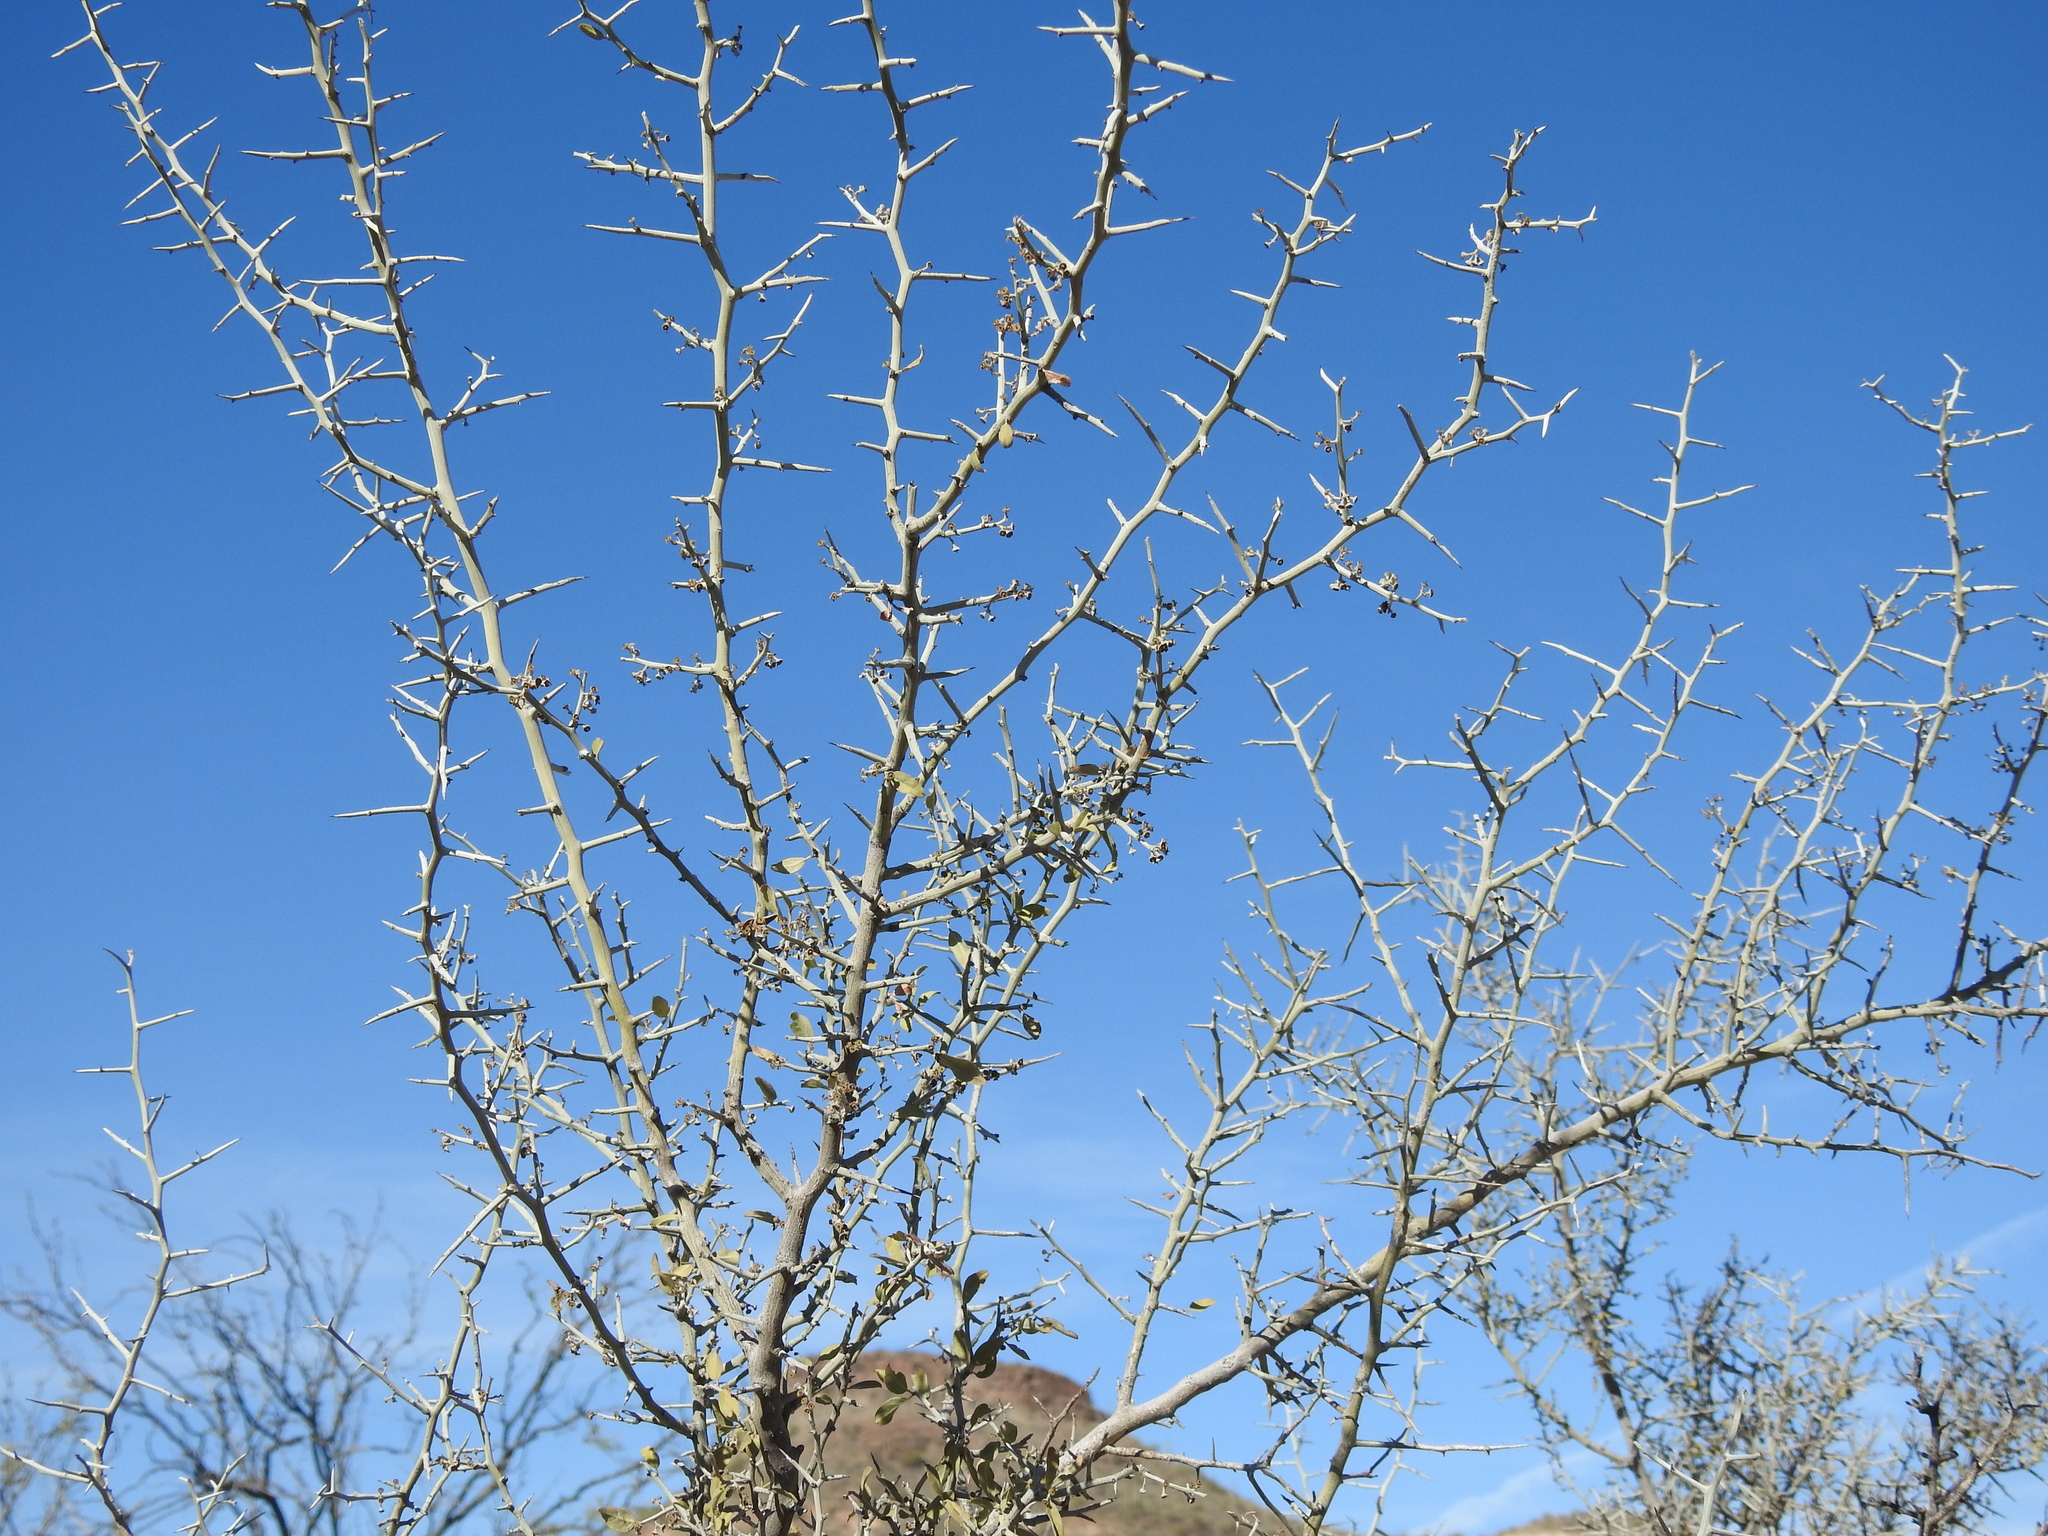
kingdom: Plantae
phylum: Tracheophyta
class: Magnoliopsida
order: Rosales
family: Rhamnaceae
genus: Sarcomphalus
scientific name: Sarcomphalus obtusifolius
